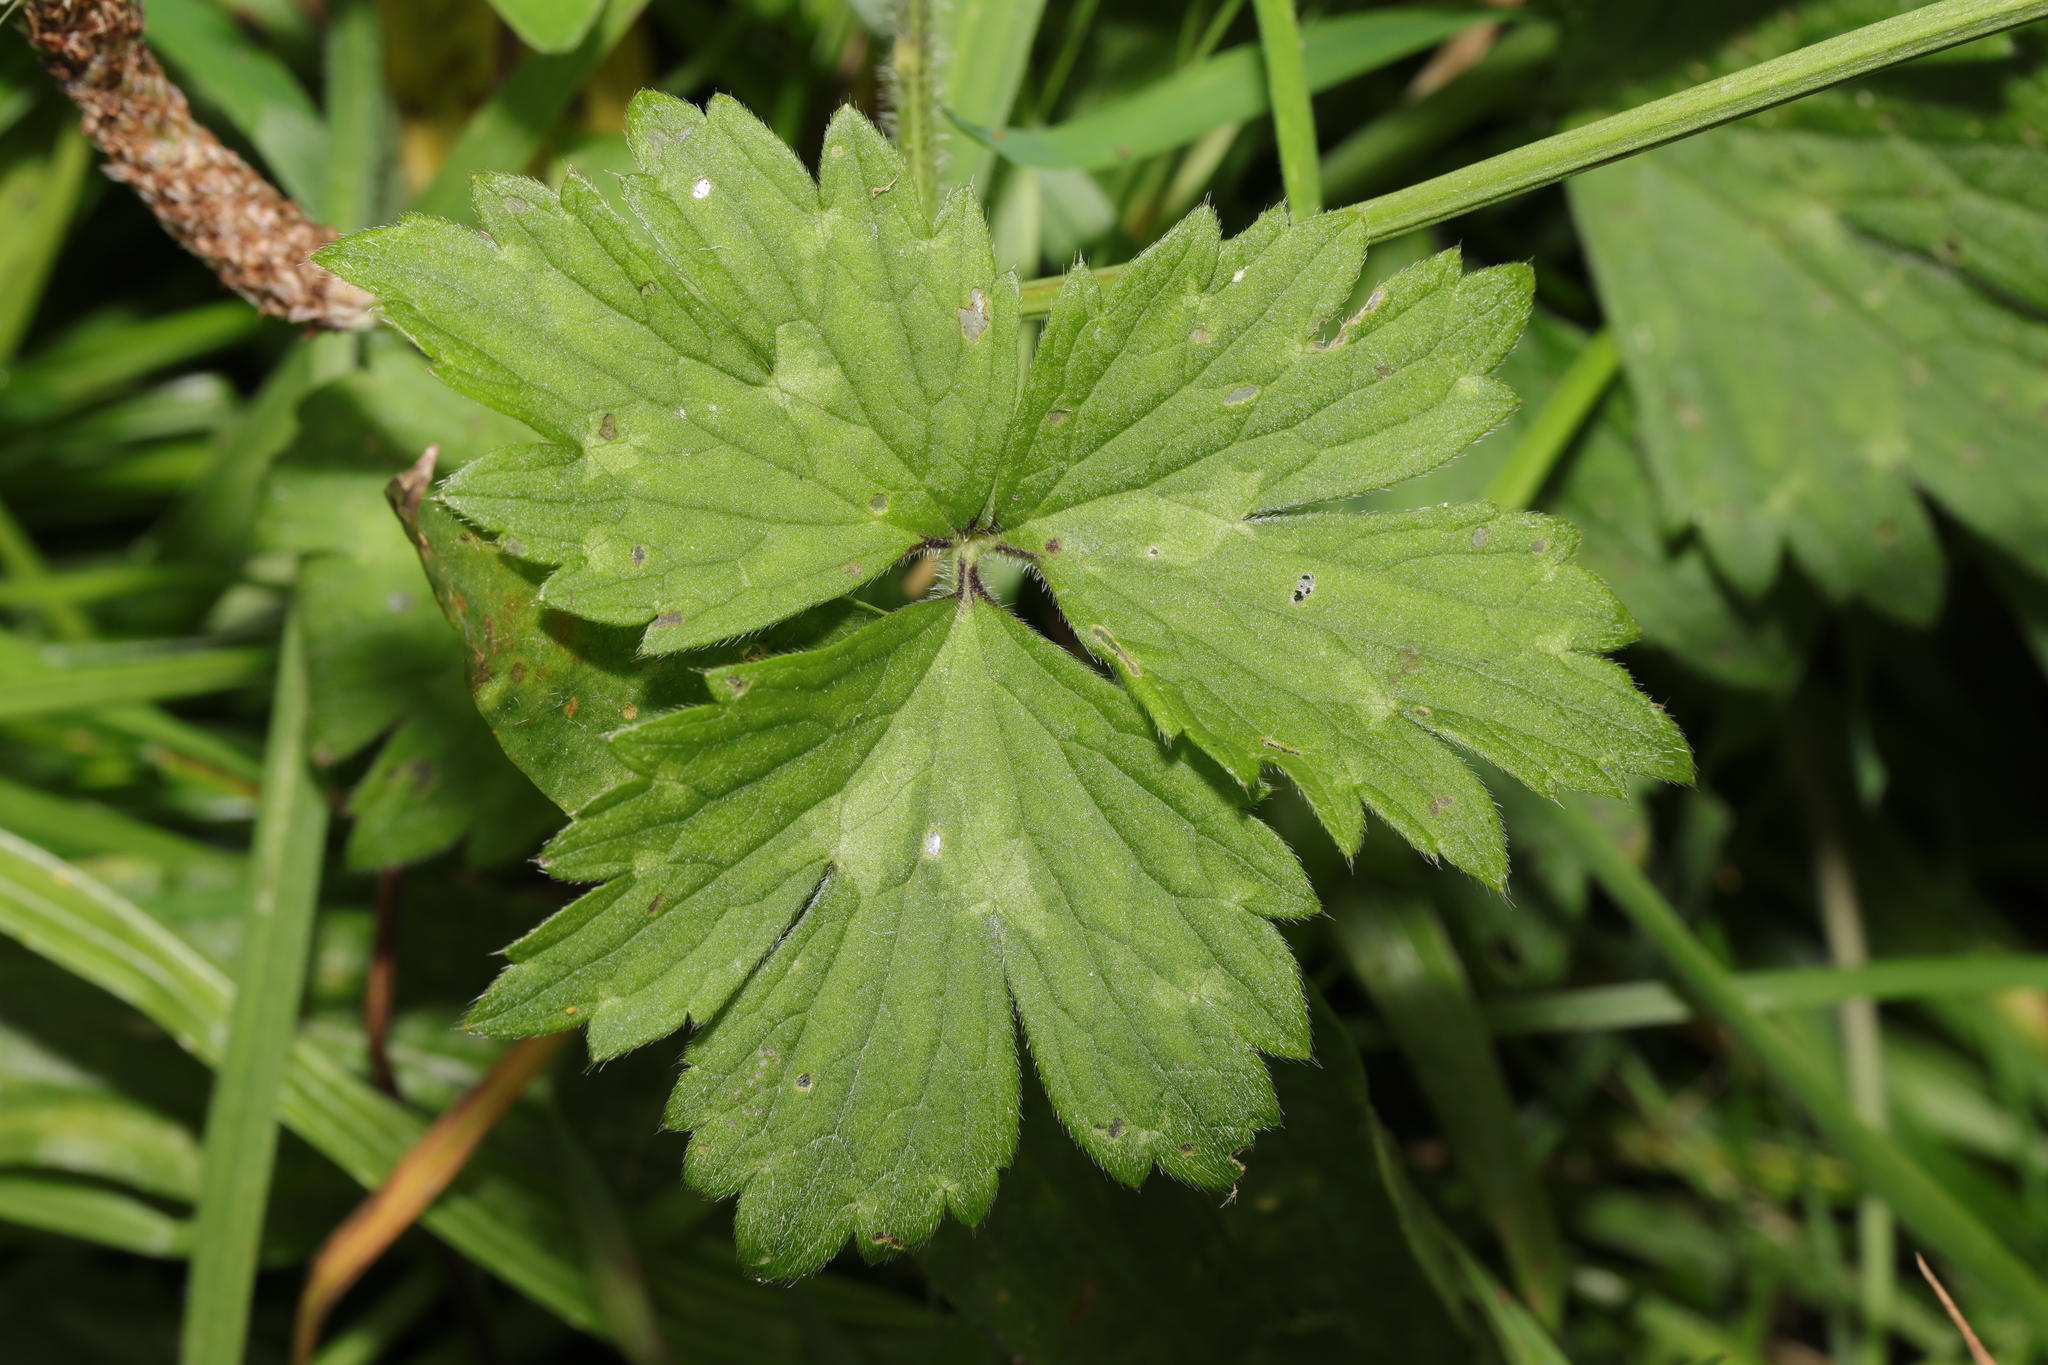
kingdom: Plantae
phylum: Tracheophyta
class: Magnoliopsida
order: Ranunculales
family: Ranunculaceae
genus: Ranunculus
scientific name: Ranunculus repens
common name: Creeping buttercup
